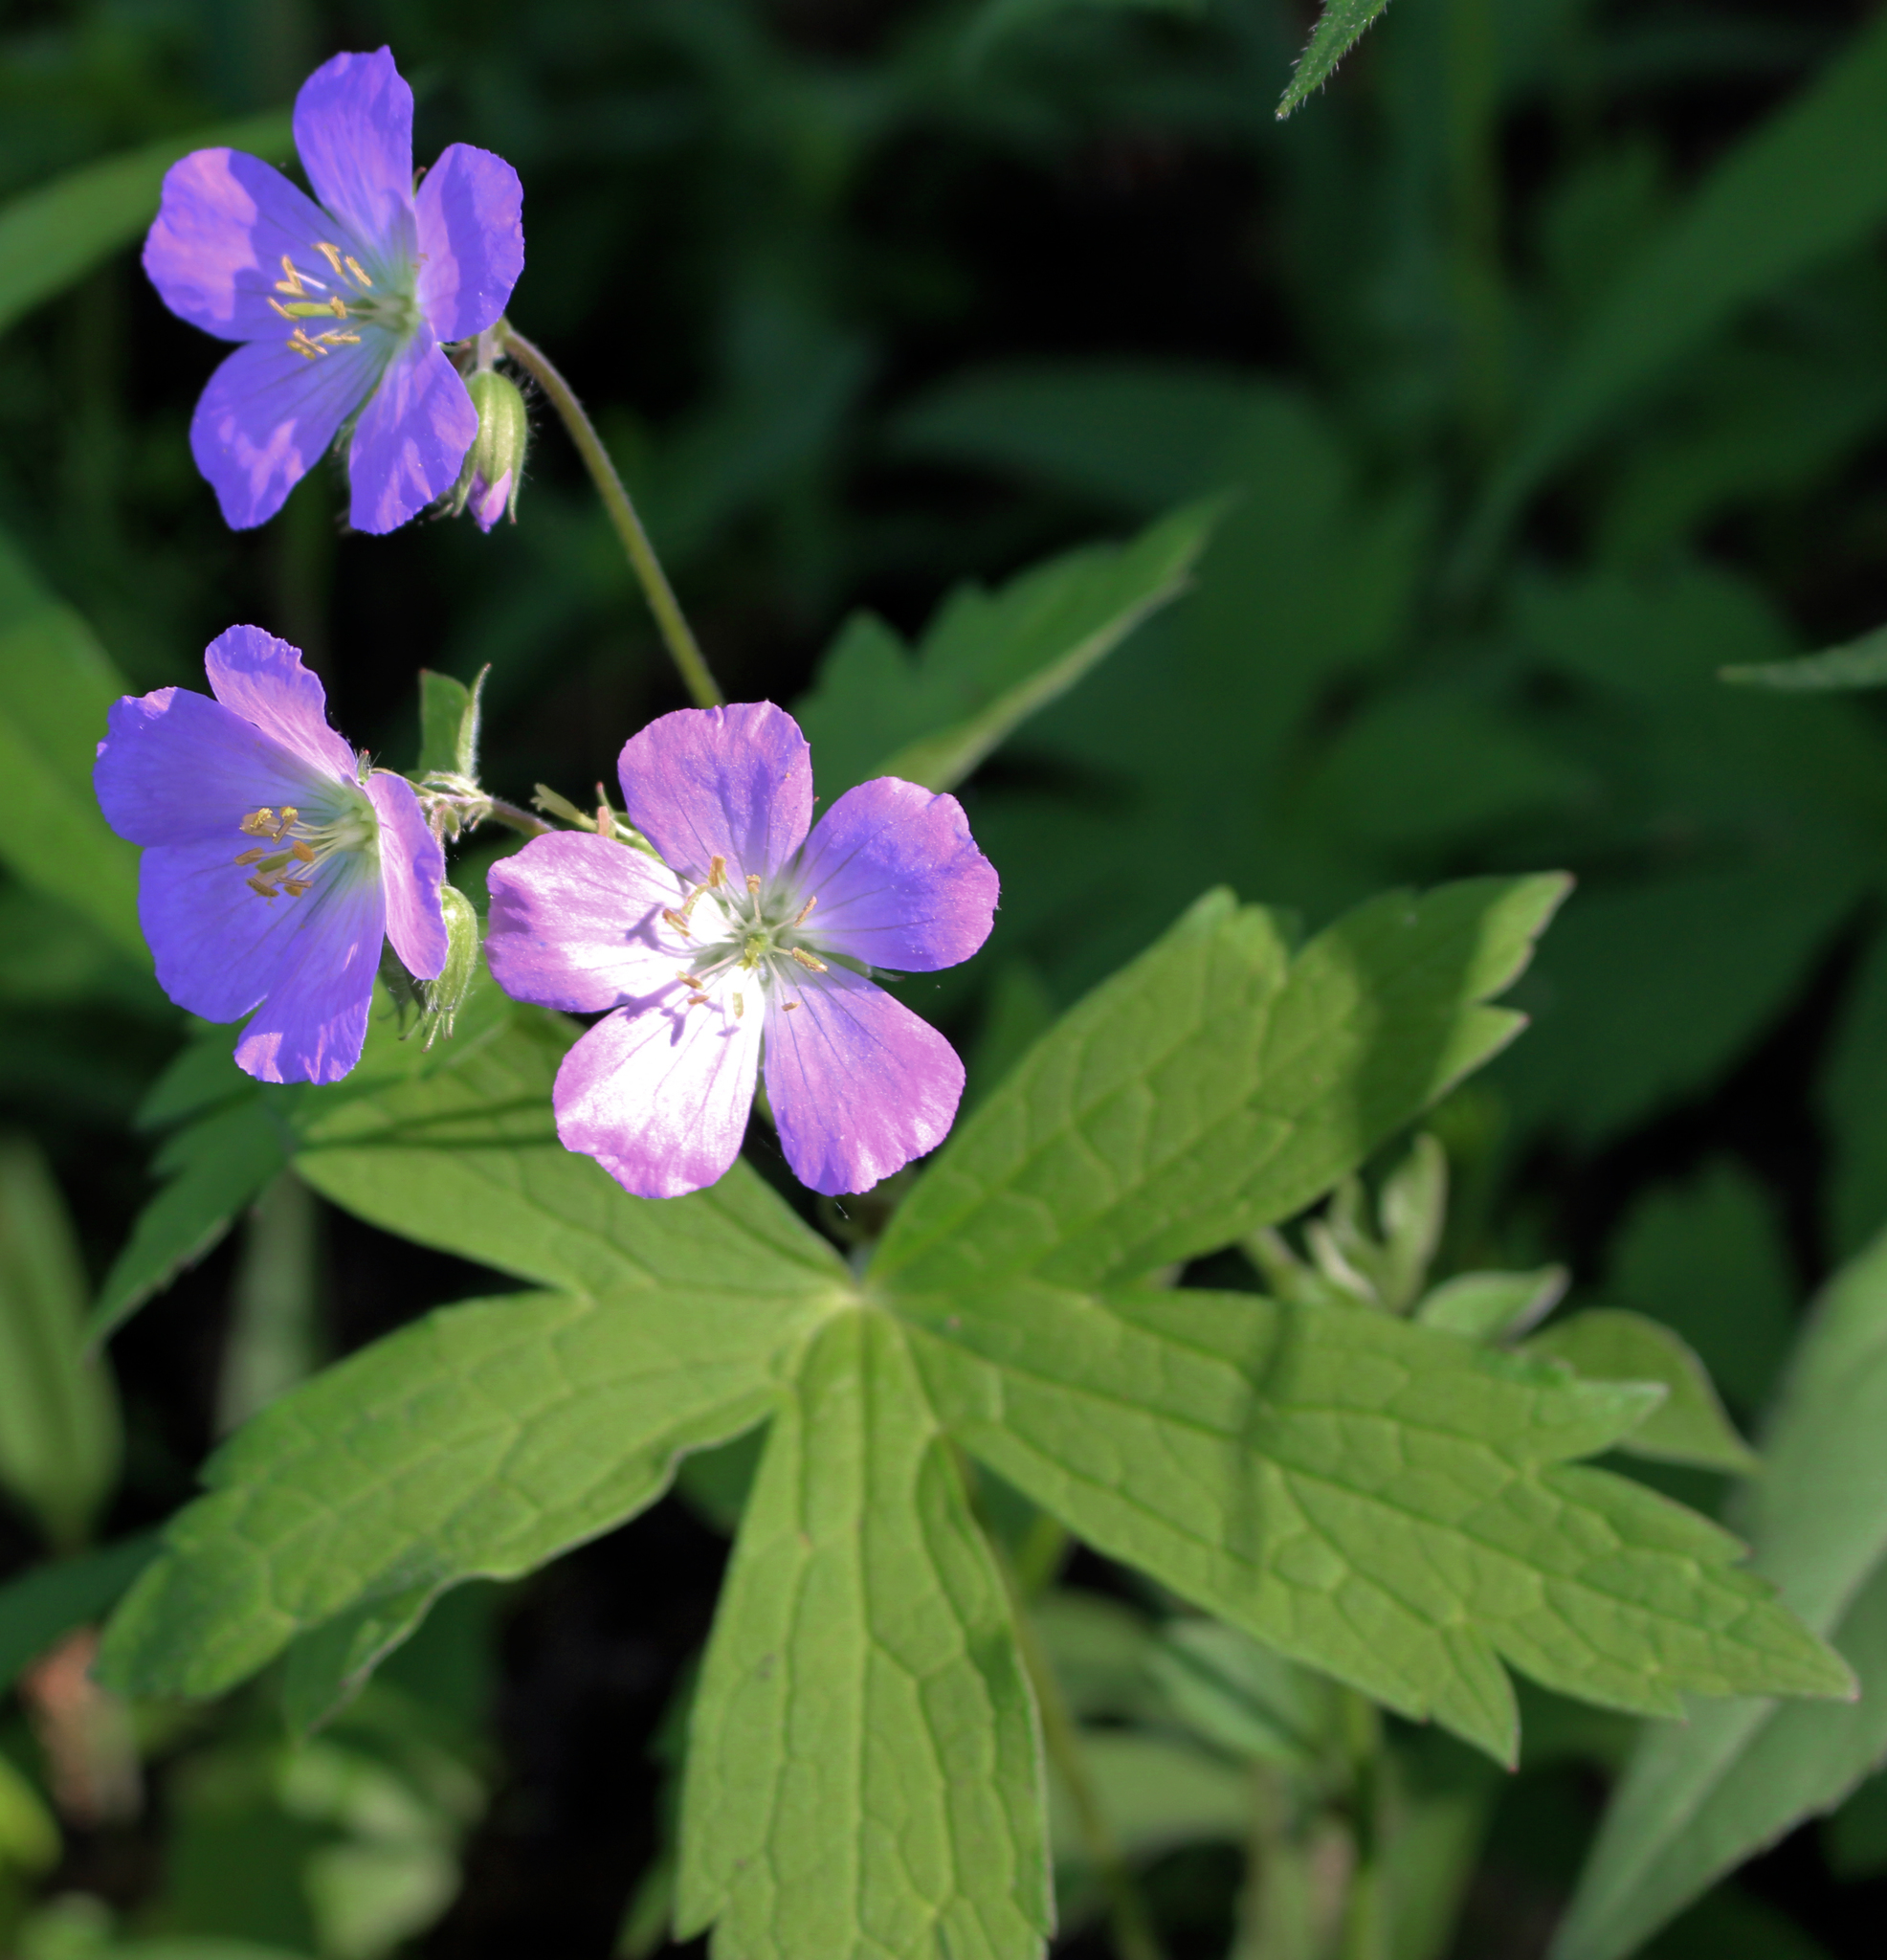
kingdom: Plantae
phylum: Tracheophyta
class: Magnoliopsida
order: Geraniales
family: Geraniaceae
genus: Geranium
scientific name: Geranium maculatum
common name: Spotted geranium
